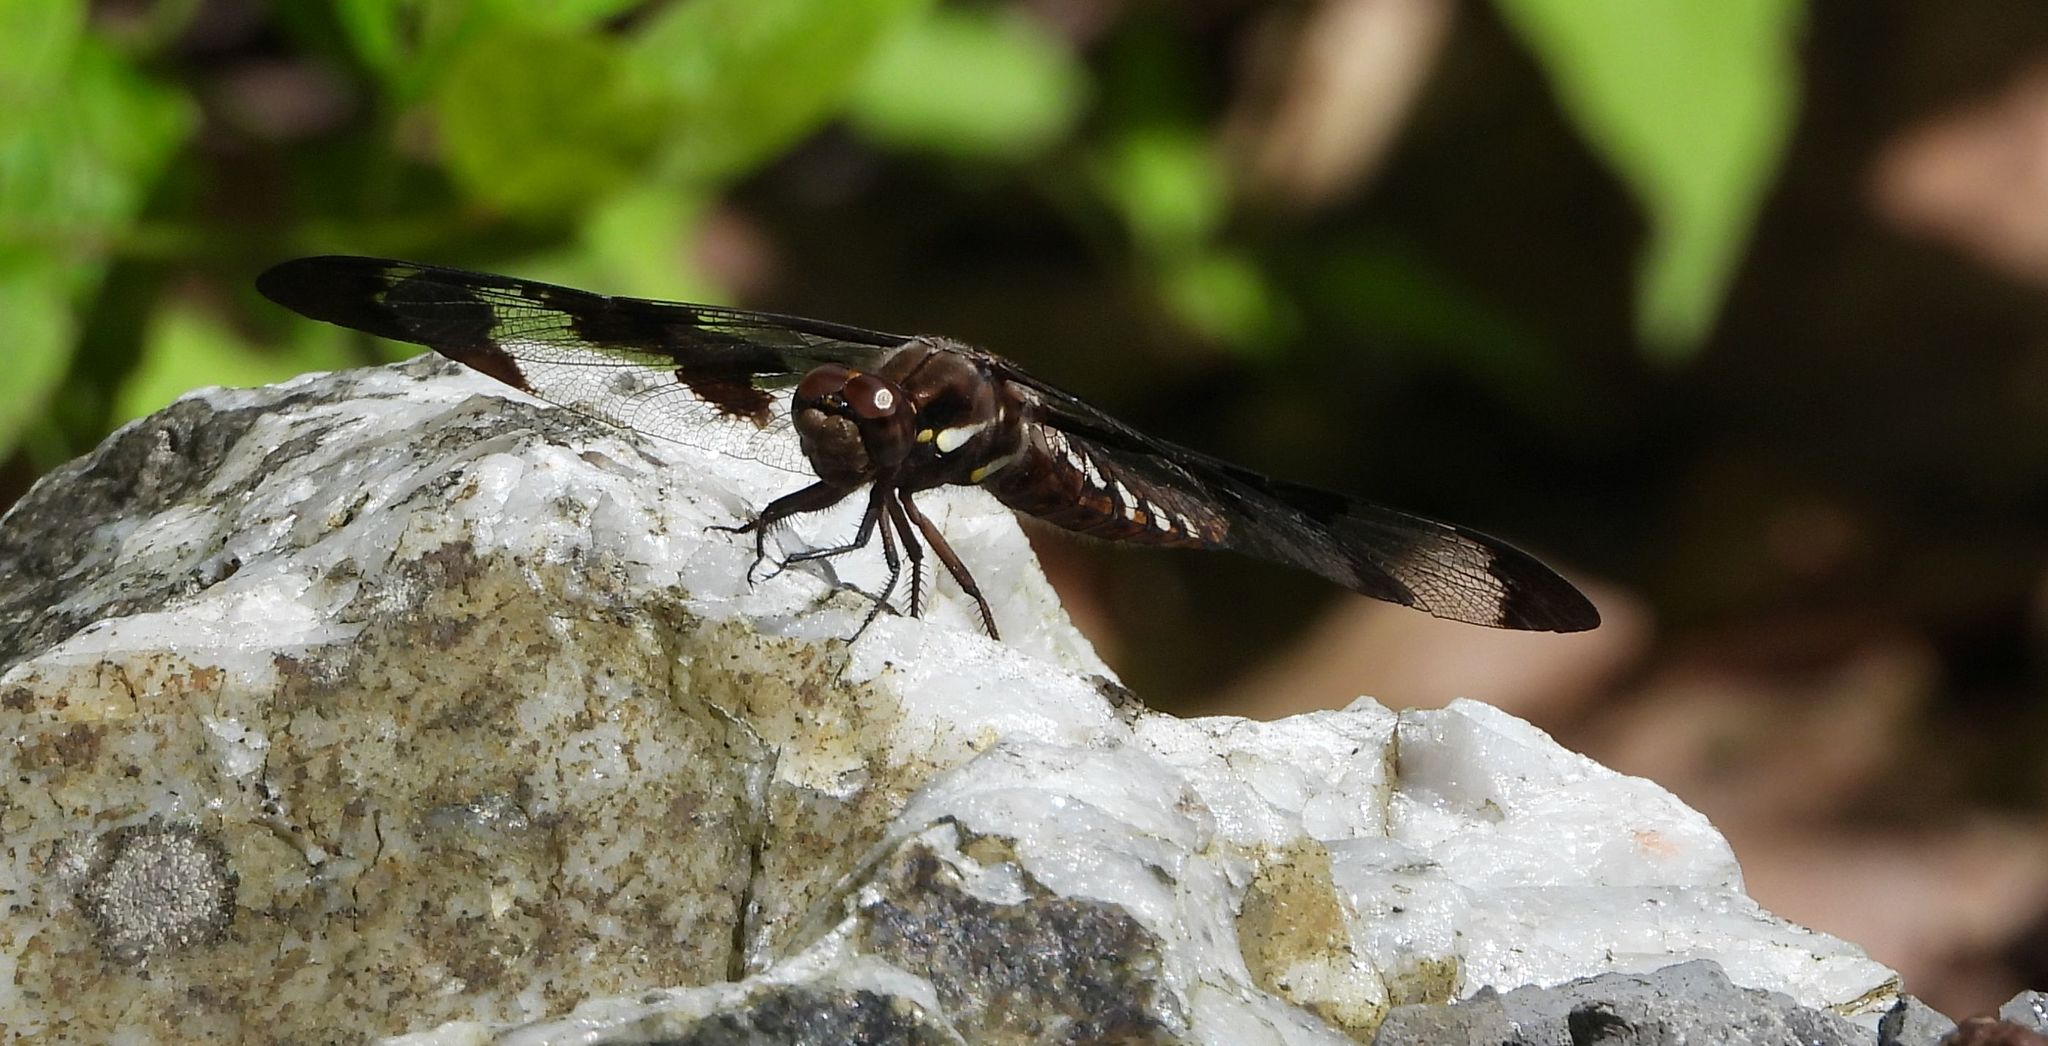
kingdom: Animalia
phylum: Arthropoda
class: Insecta
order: Odonata
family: Libellulidae
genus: Plathemis
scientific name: Plathemis lydia
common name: Common whitetail
